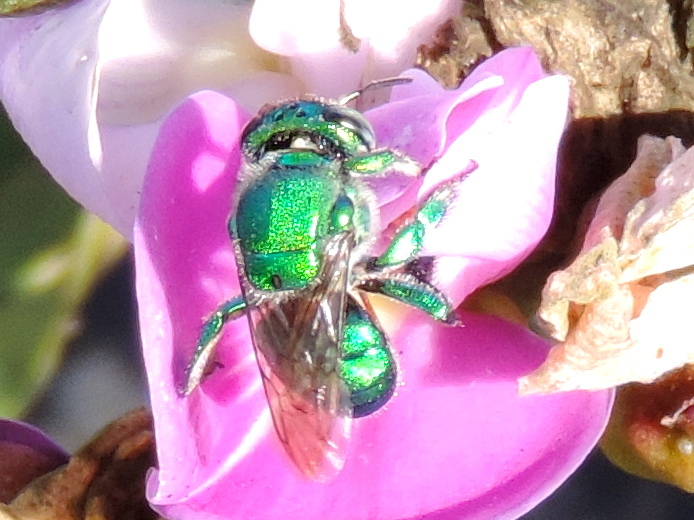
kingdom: Animalia
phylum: Arthropoda
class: Insecta
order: Hymenoptera
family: Apidae
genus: Euglossa
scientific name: Euglossa
